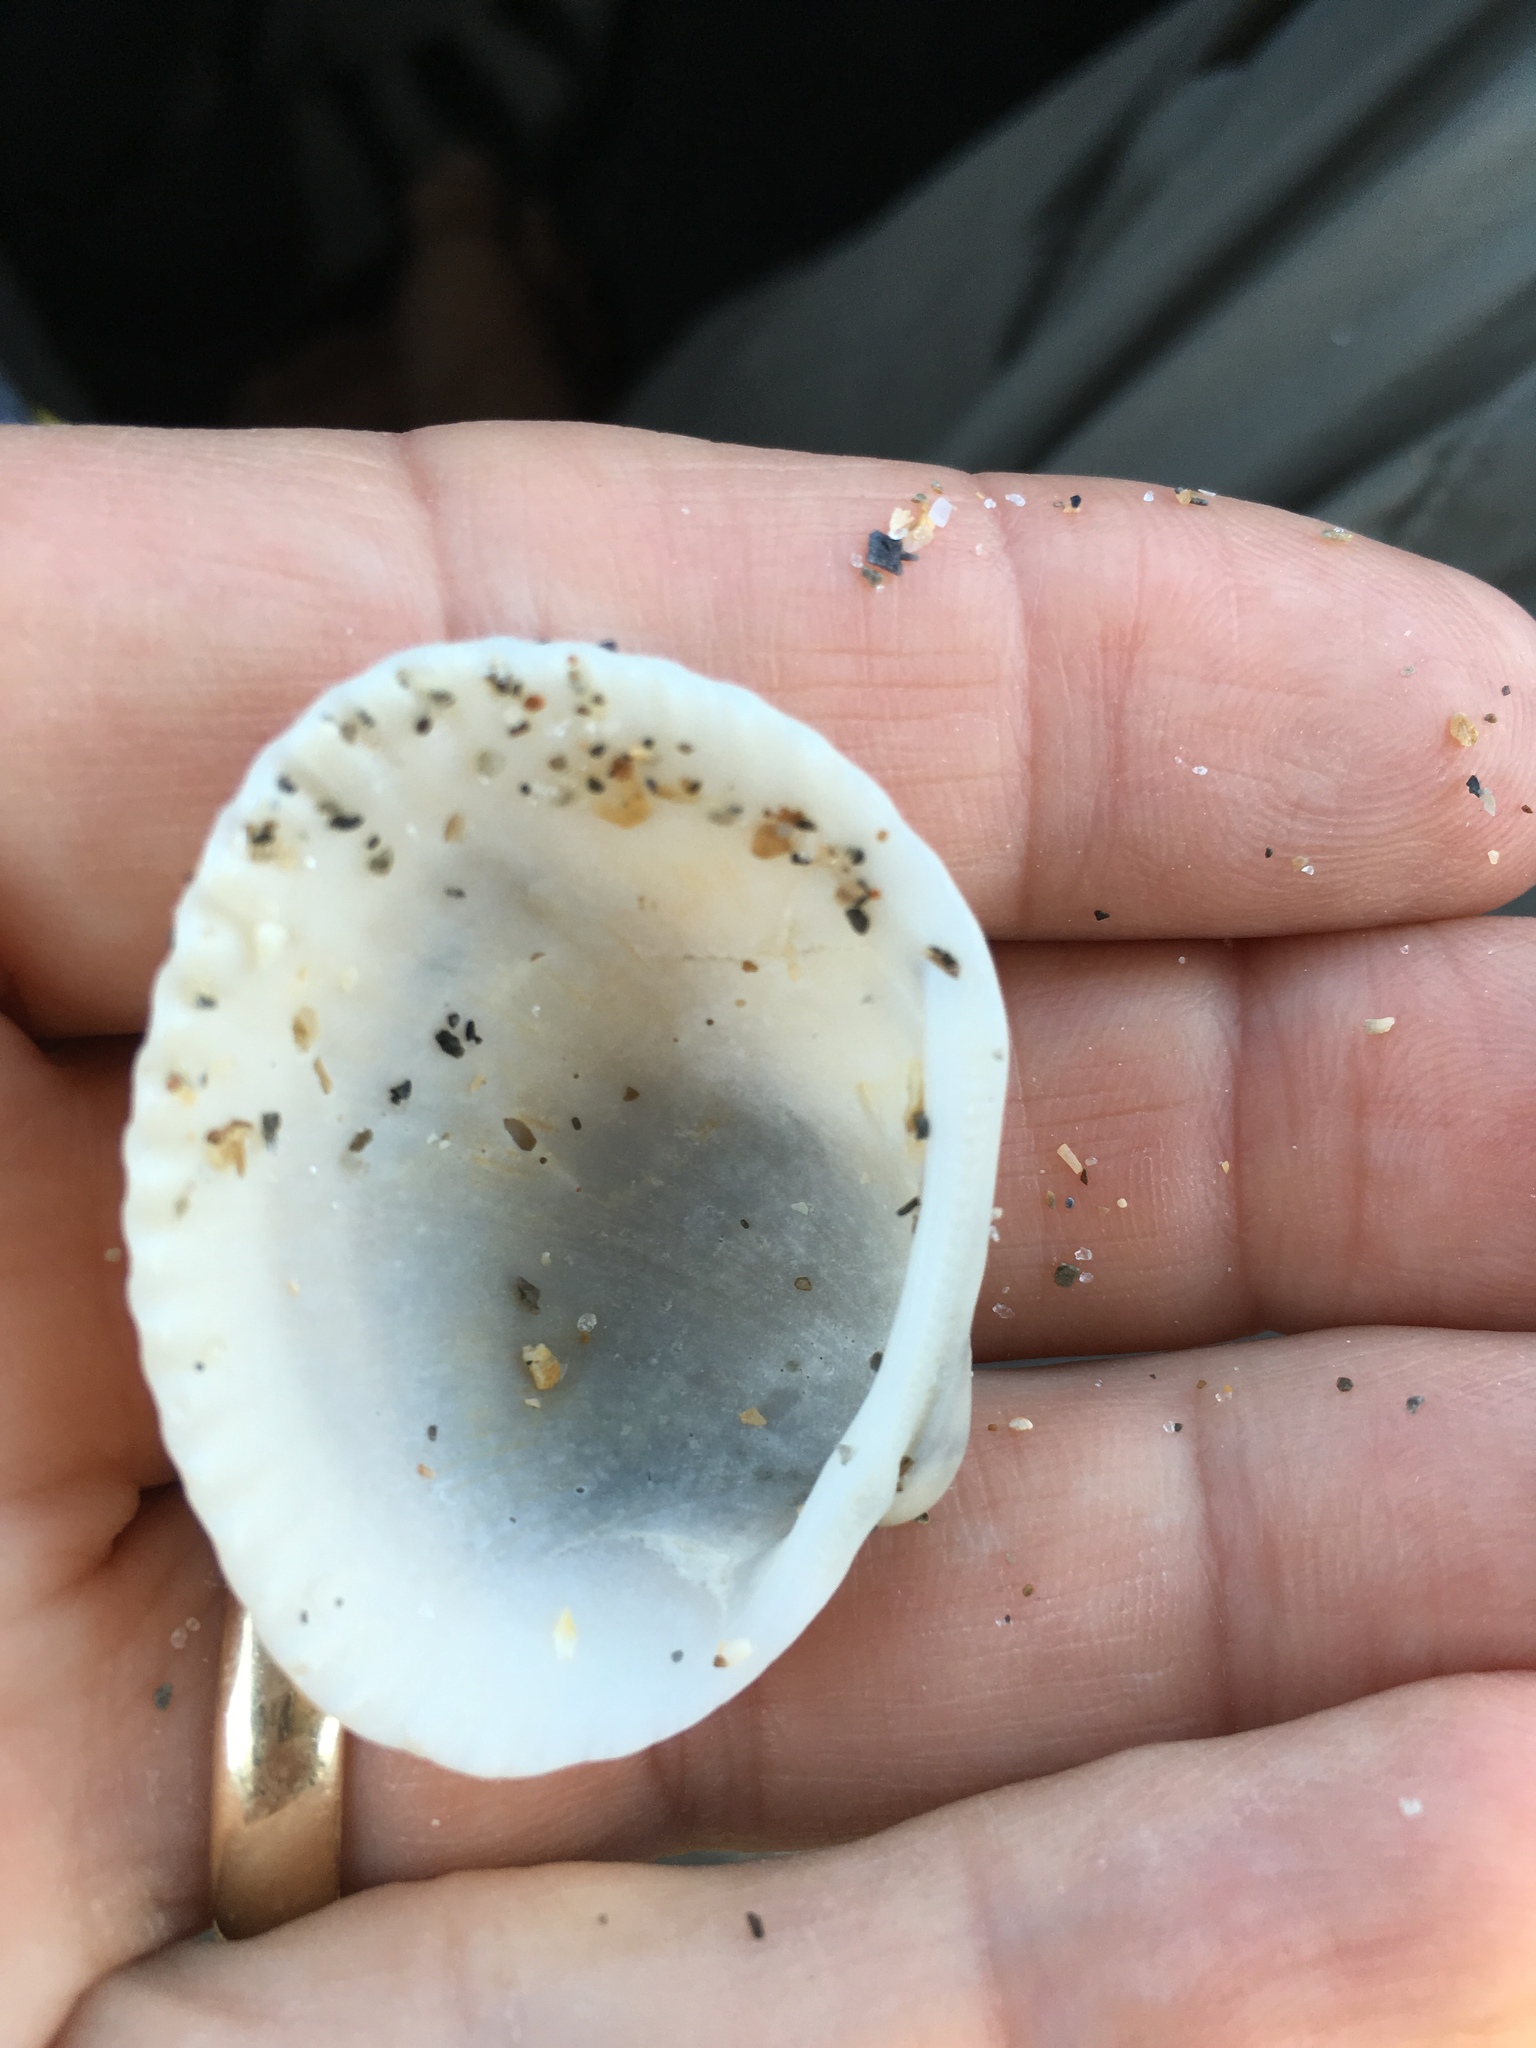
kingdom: Animalia
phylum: Mollusca
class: Bivalvia
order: Arcida
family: Arcidae
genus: Lunarca
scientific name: Lunarca ovalis
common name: Blood ark
